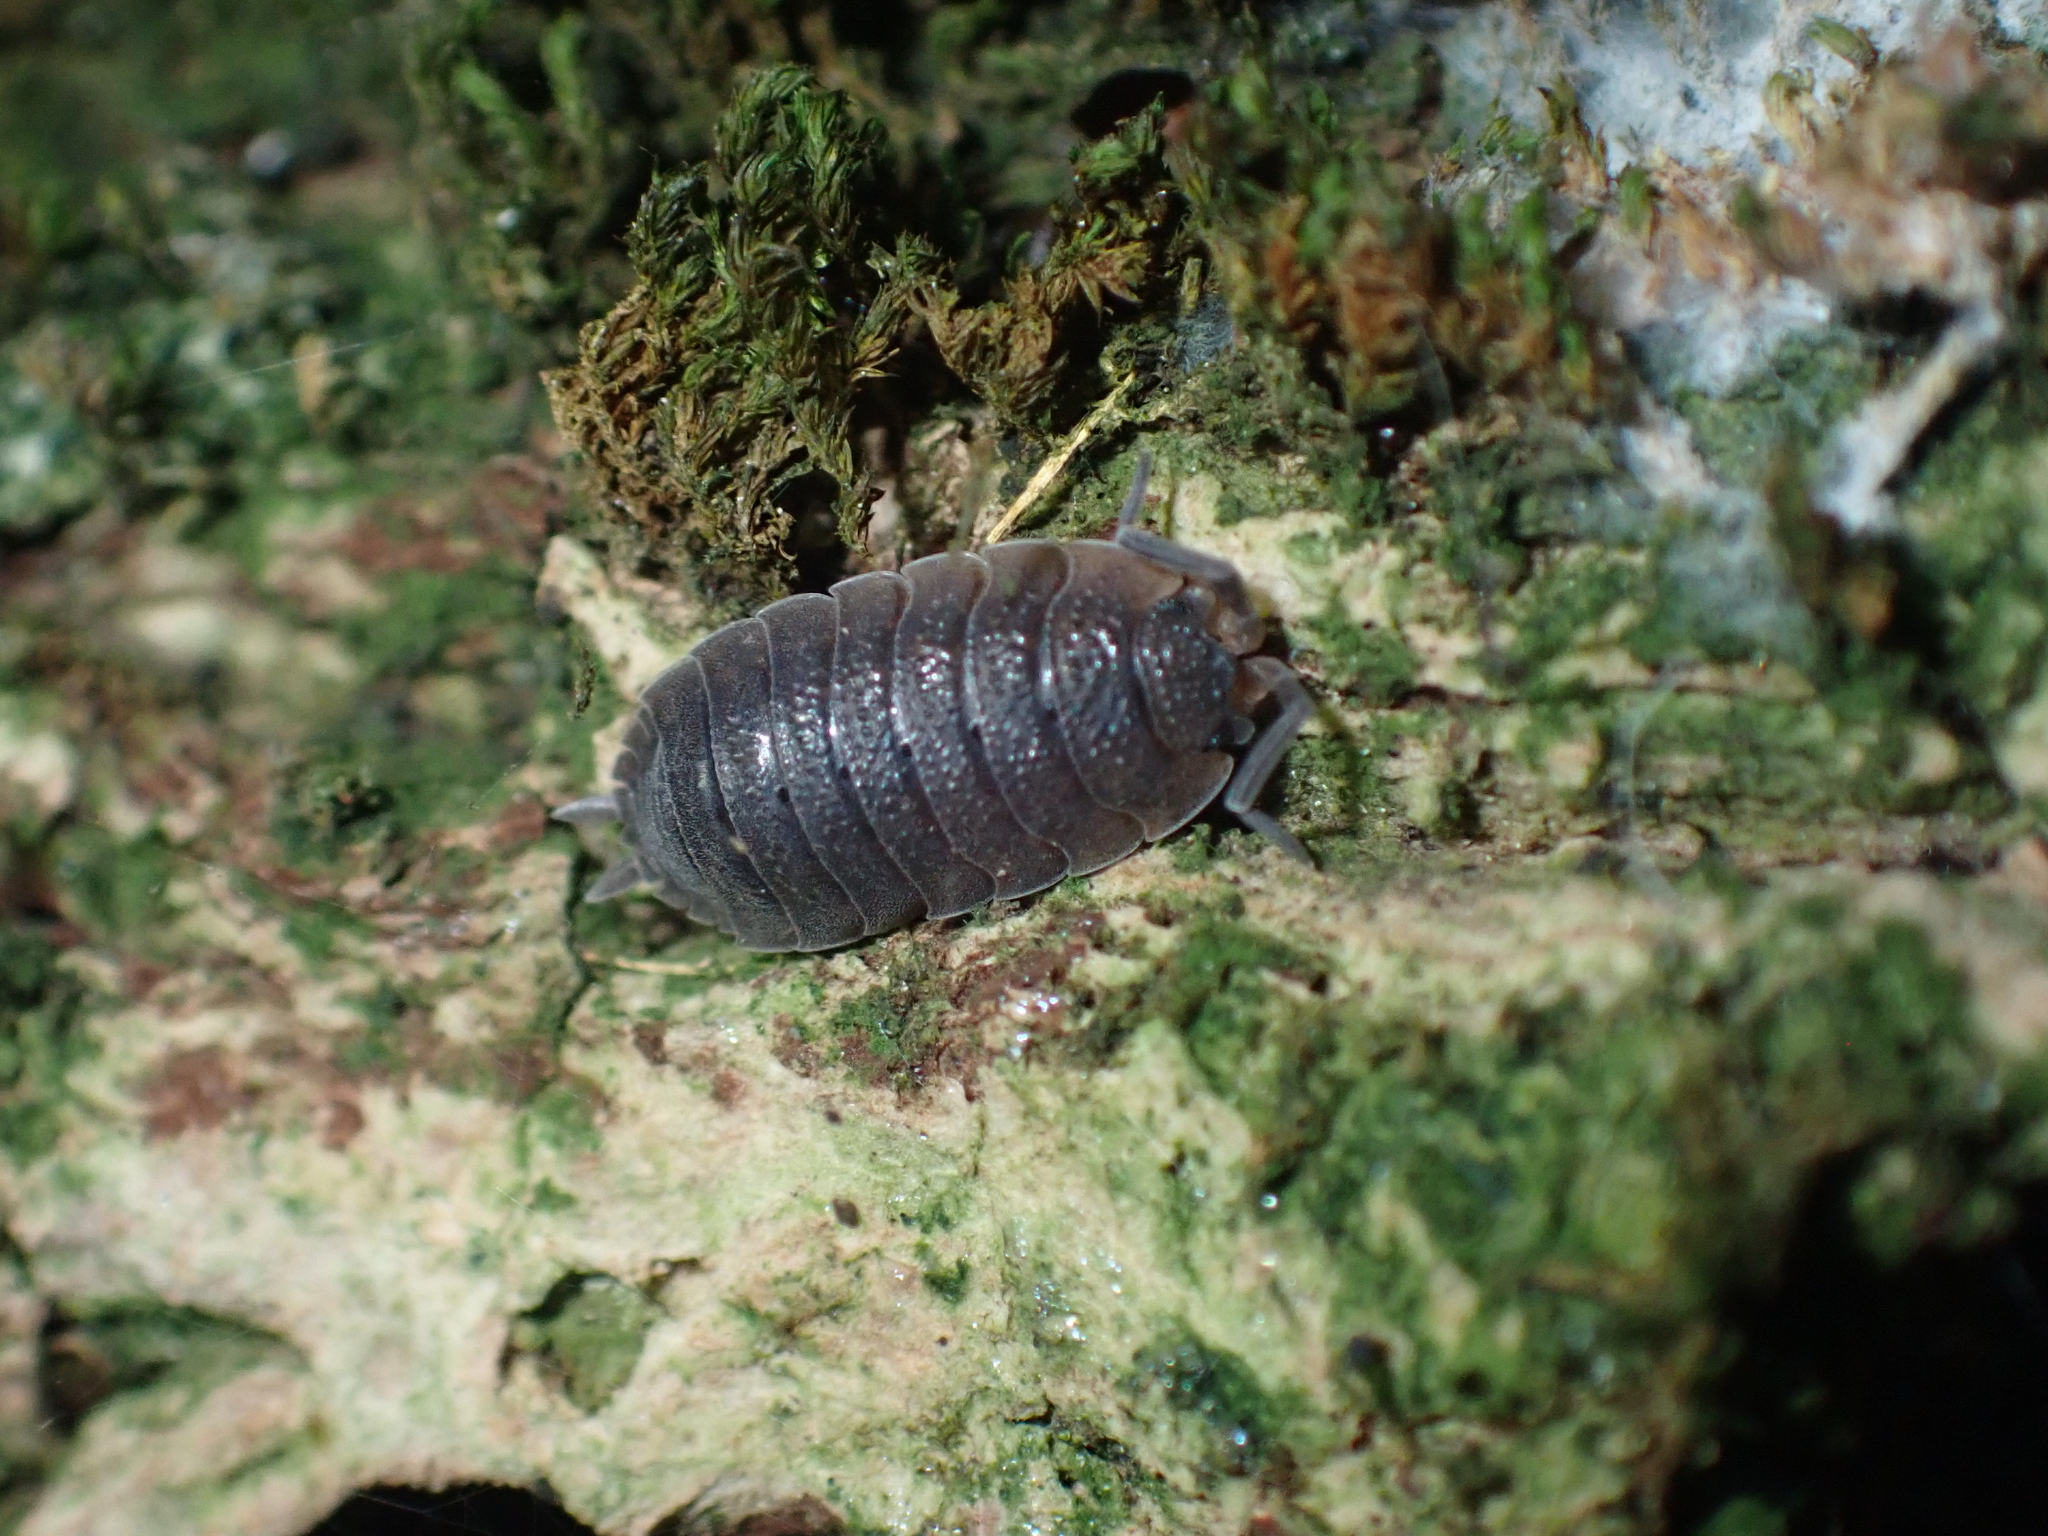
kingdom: Animalia
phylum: Arthropoda
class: Malacostraca
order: Isopoda
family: Porcellionidae
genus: Porcellio
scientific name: Porcellio scaber
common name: Common rough woodlouse
